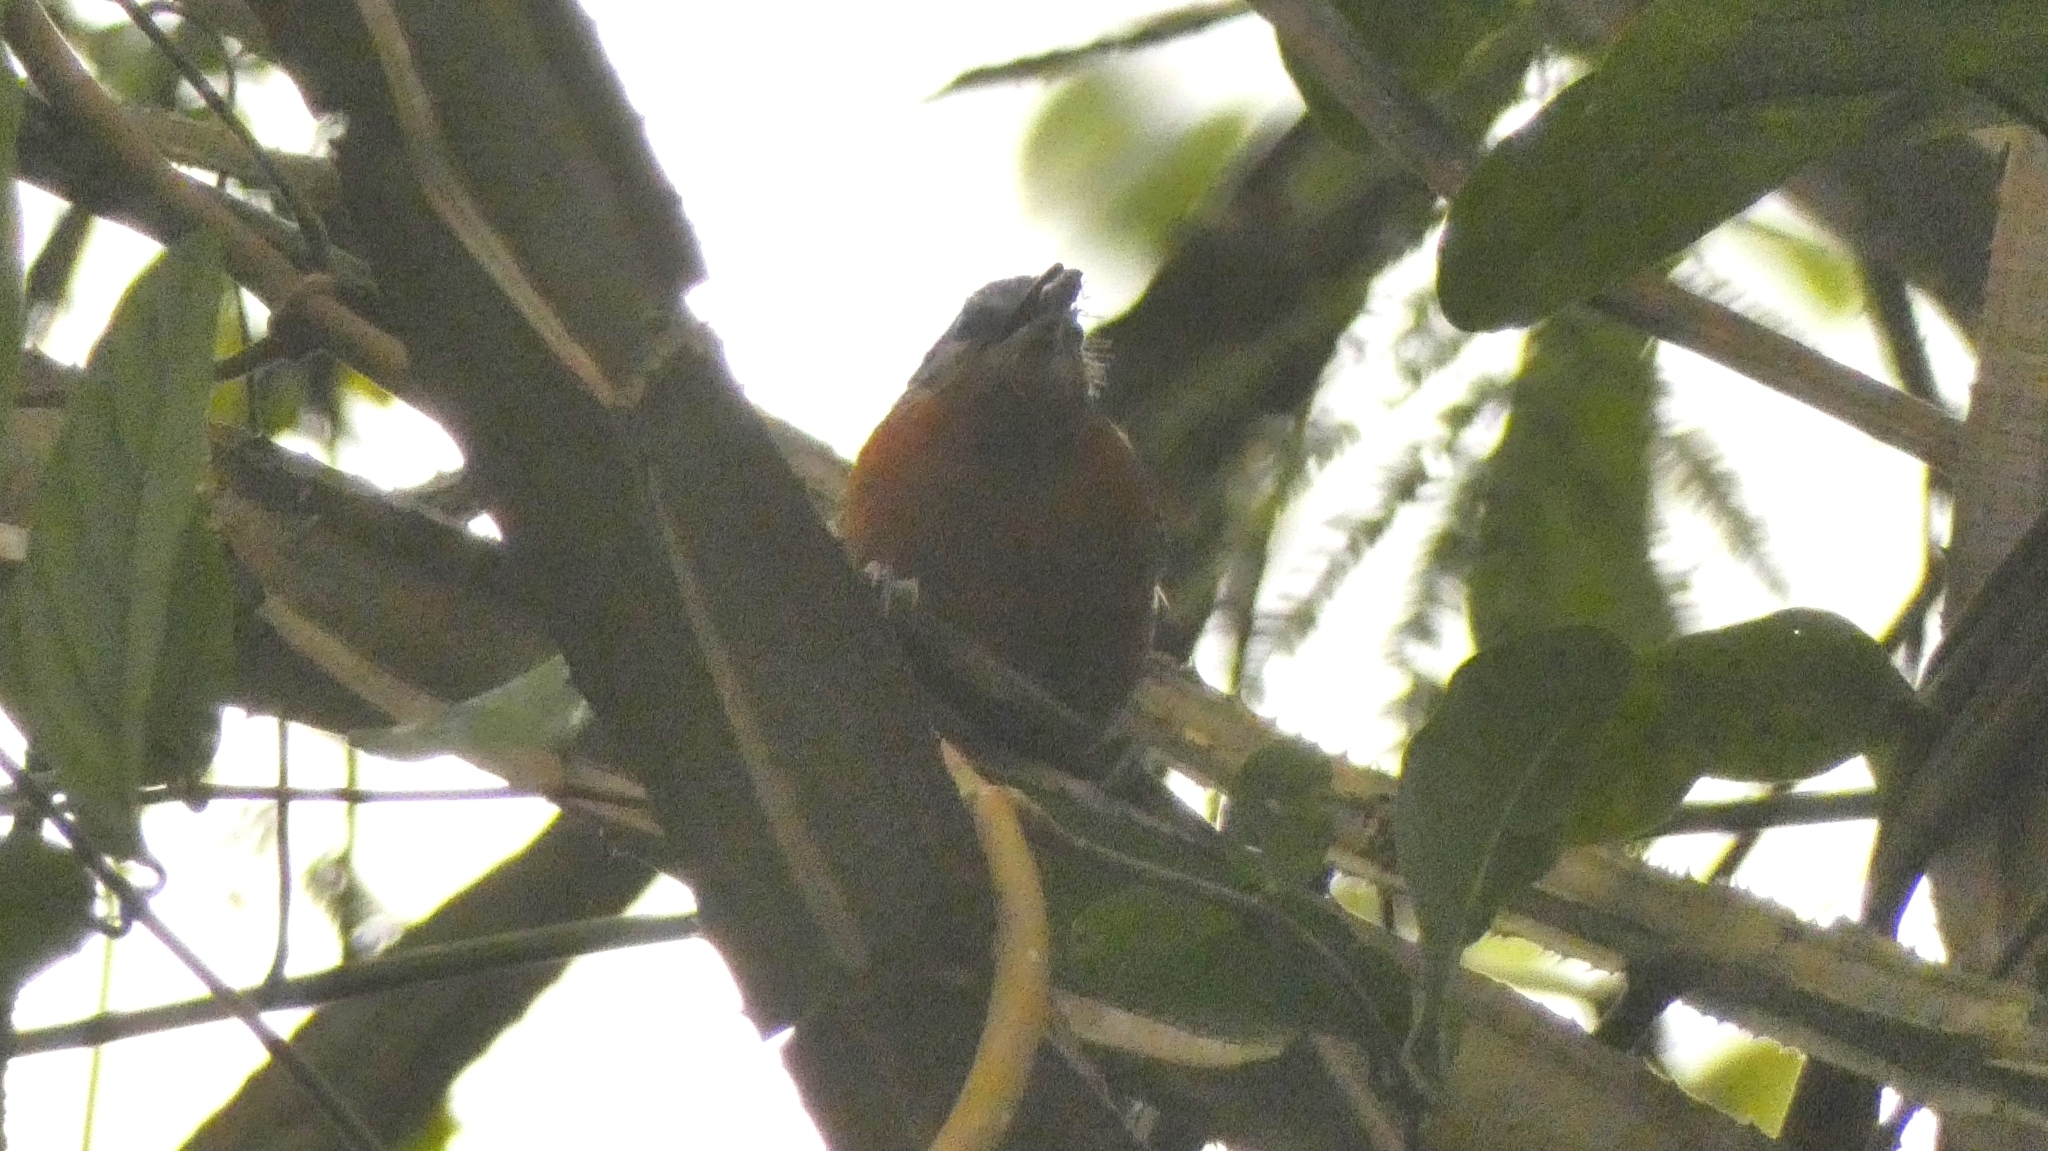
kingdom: Animalia
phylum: Chordata
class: Aves
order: Passeriformes
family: Thamnophilidae
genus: Drymophila
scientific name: Drymophila ferruginea
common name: Ferruginous antbird
